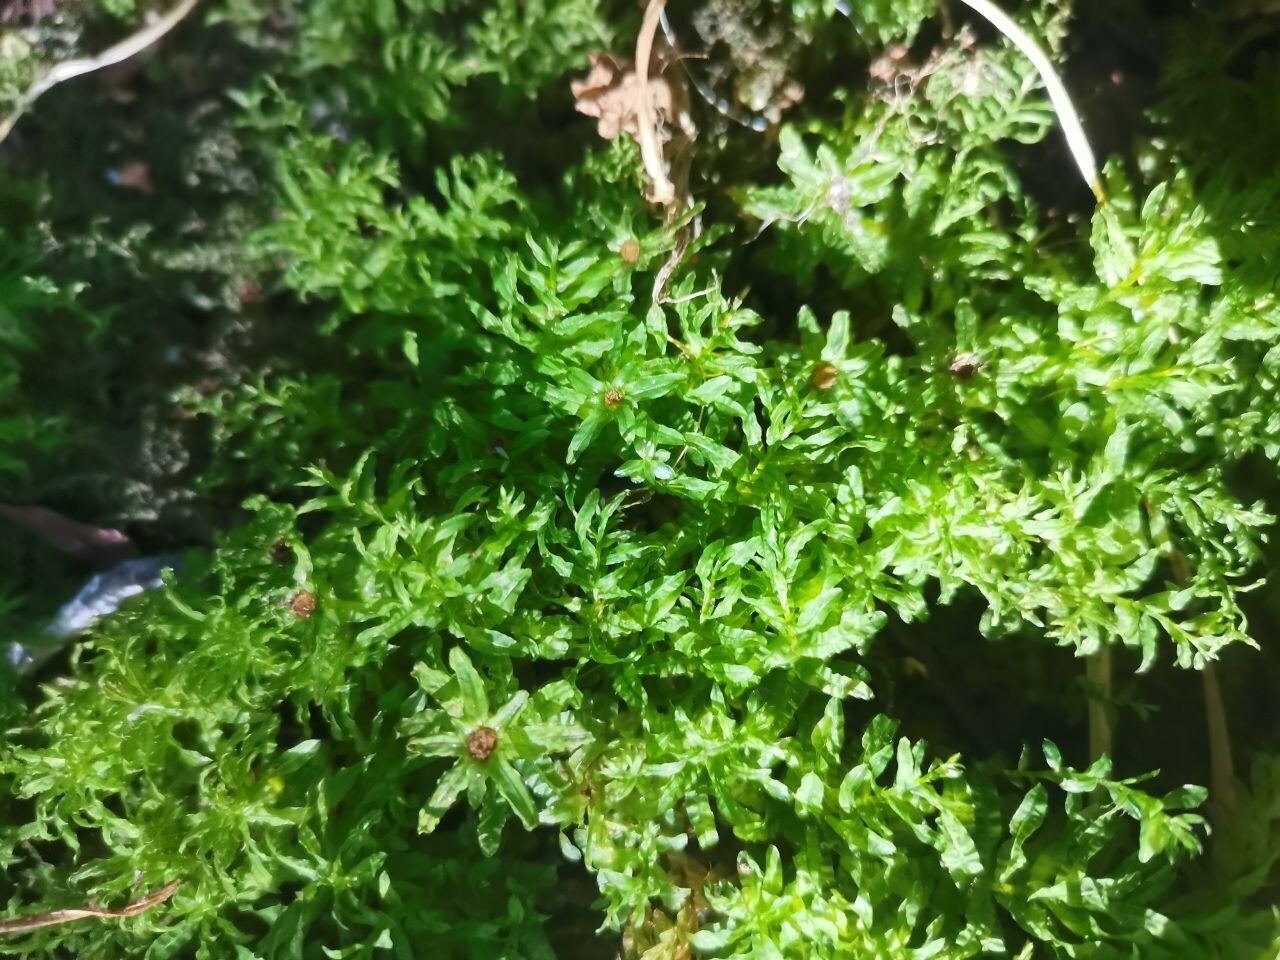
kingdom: Plantae
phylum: Bryophyta
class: Bryopsida
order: Bryales
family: Mniaceae
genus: Plagiomnium
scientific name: Plagiomnium undulatum
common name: Hart's-tongue thyme-moss
